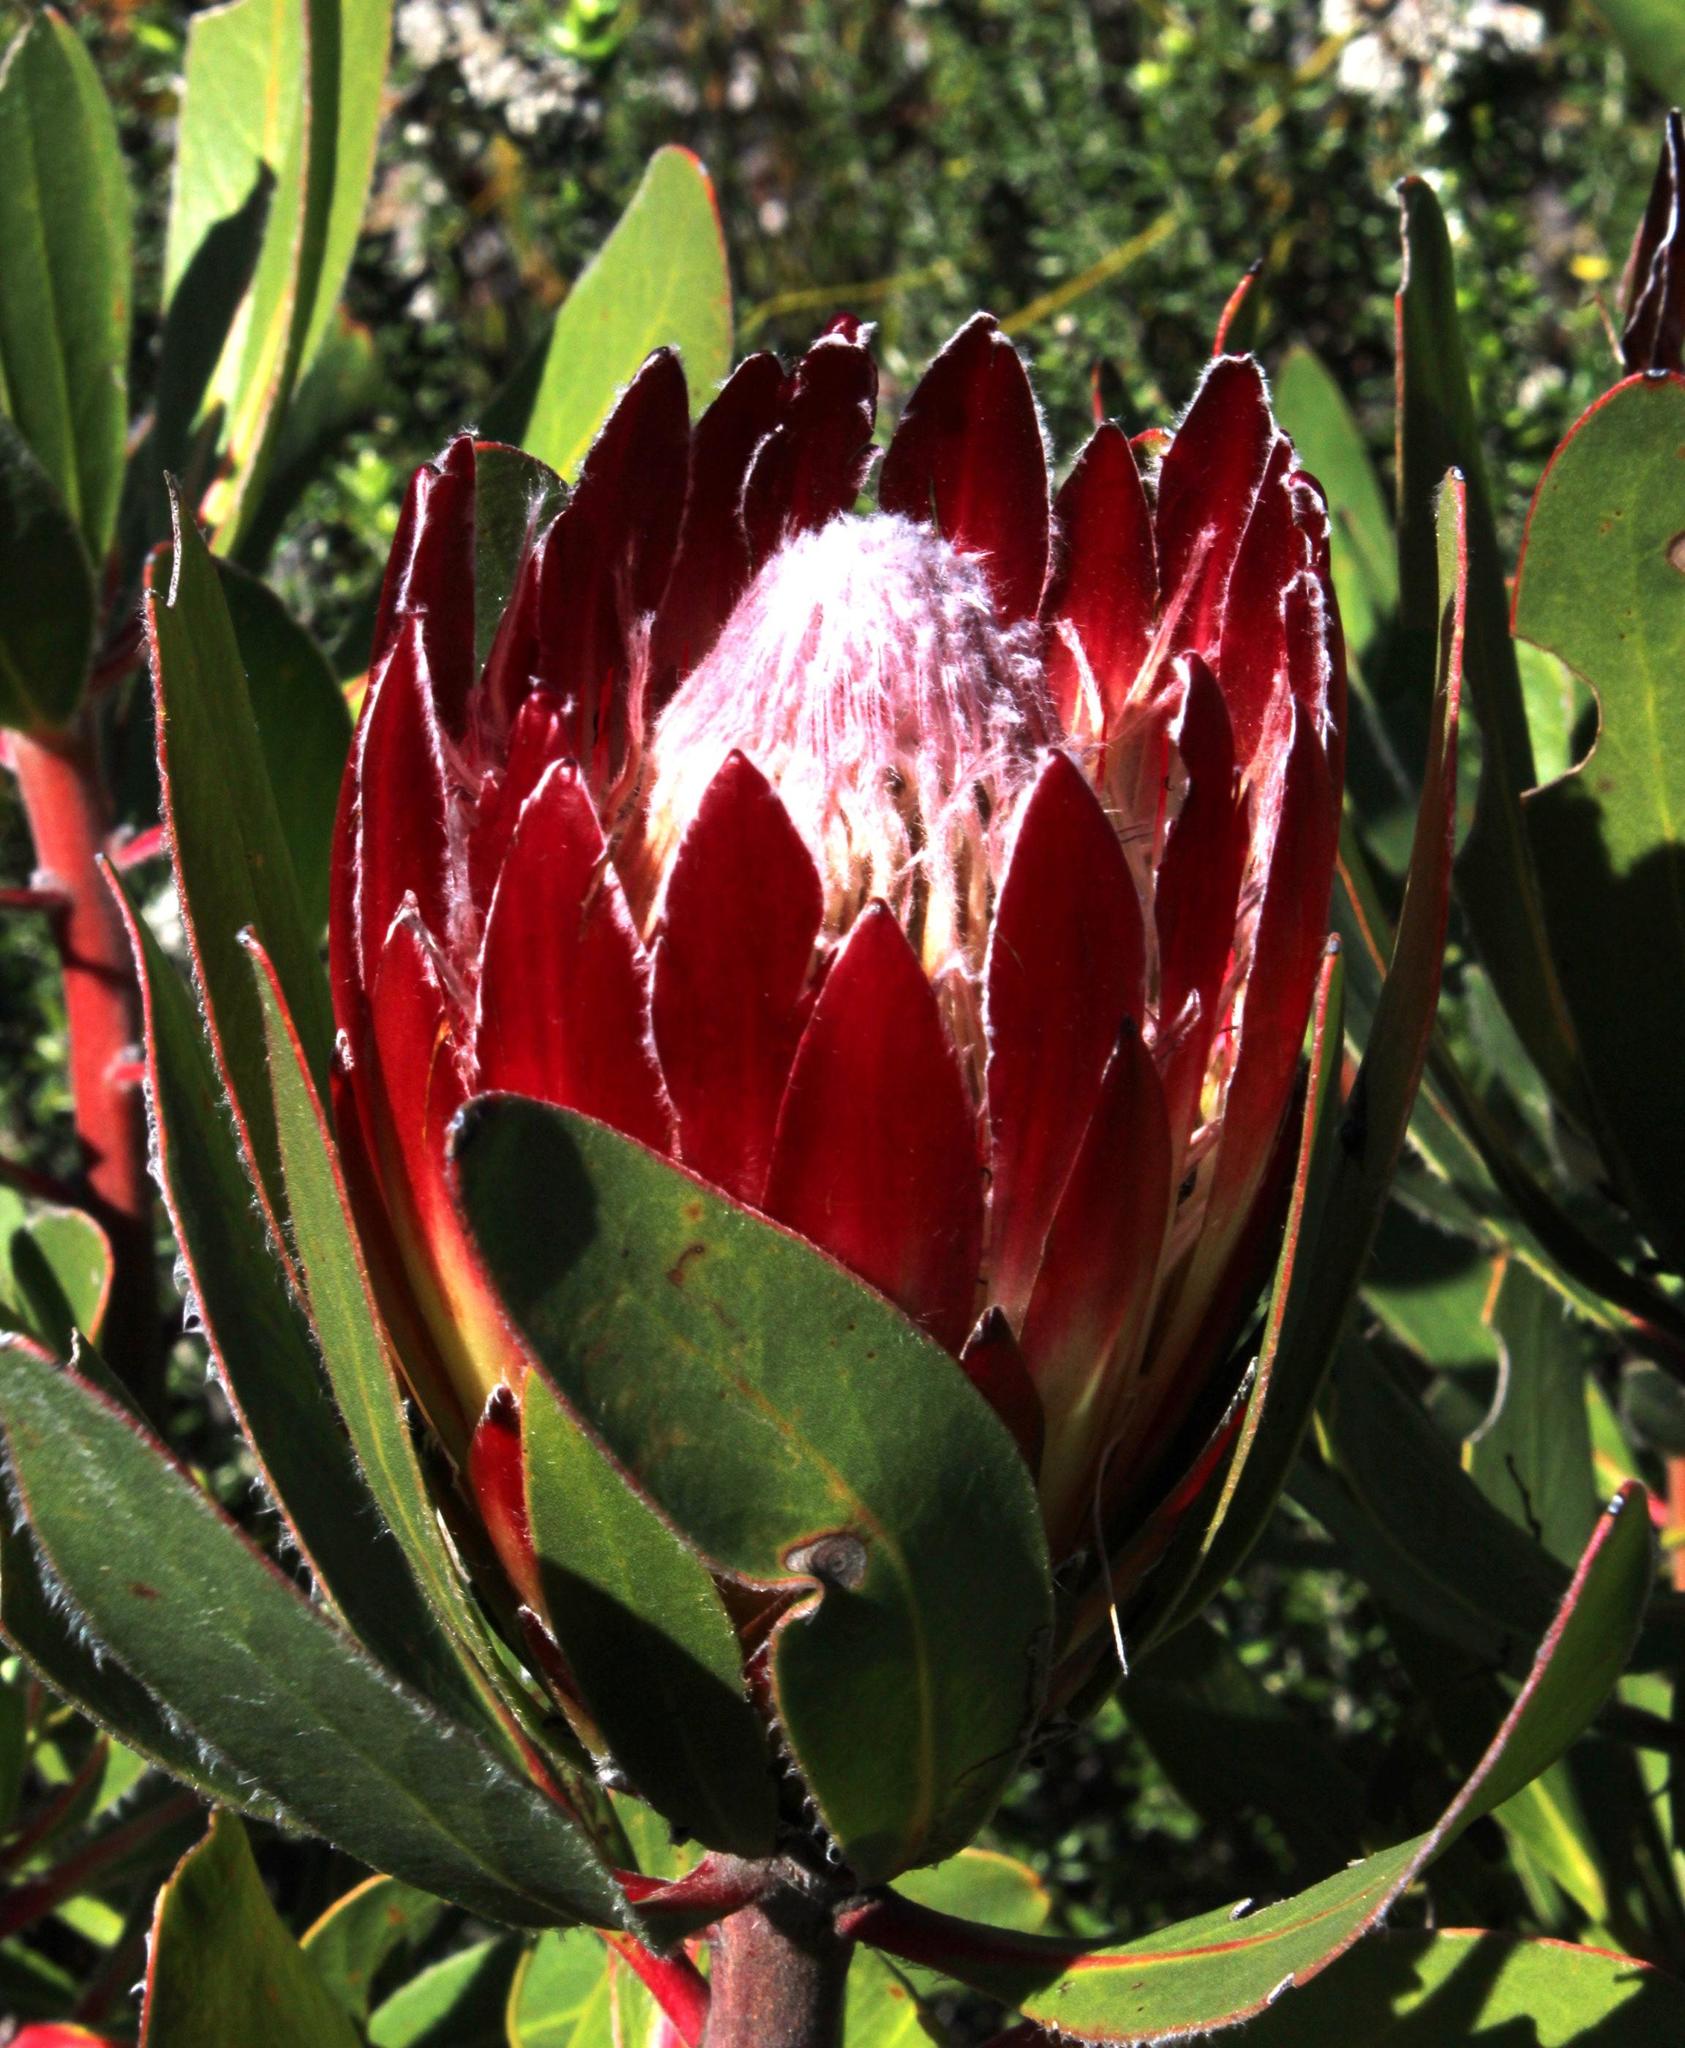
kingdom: Plantae
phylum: Tracheophyta
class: Magnoliopsida
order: Proteales
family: Proteaceae
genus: Protea
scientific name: Protea obtusifolia
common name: Bredasdorp sugarbush
